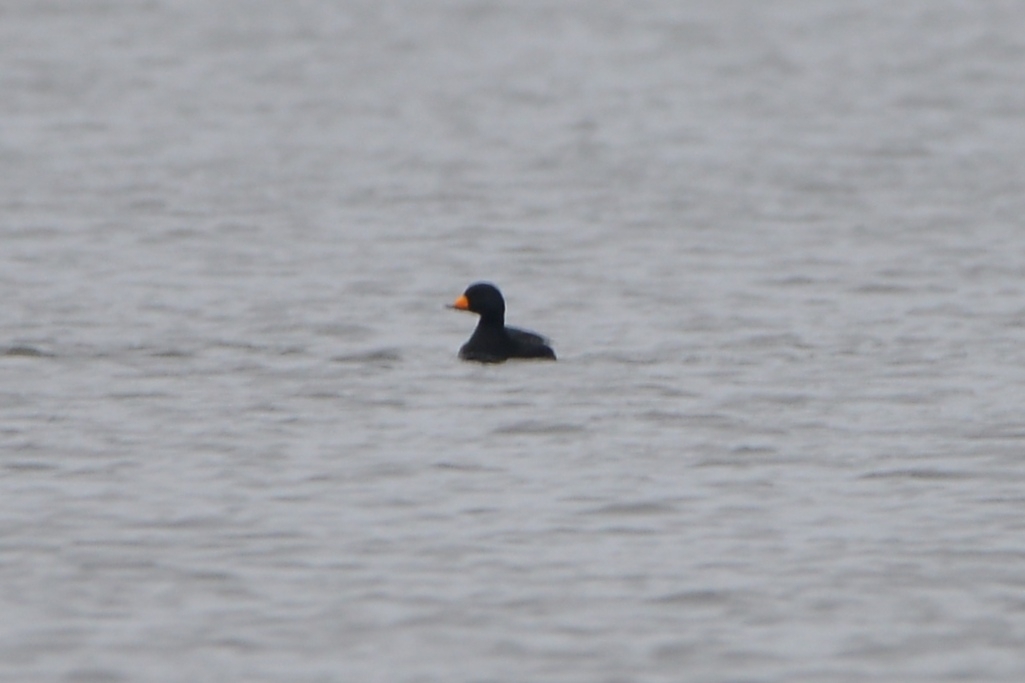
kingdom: Animalia
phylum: Chordata
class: Aves
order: Anseriformes
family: Anatidae
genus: Melanitta
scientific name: Melanitta americana
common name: Black scoter
